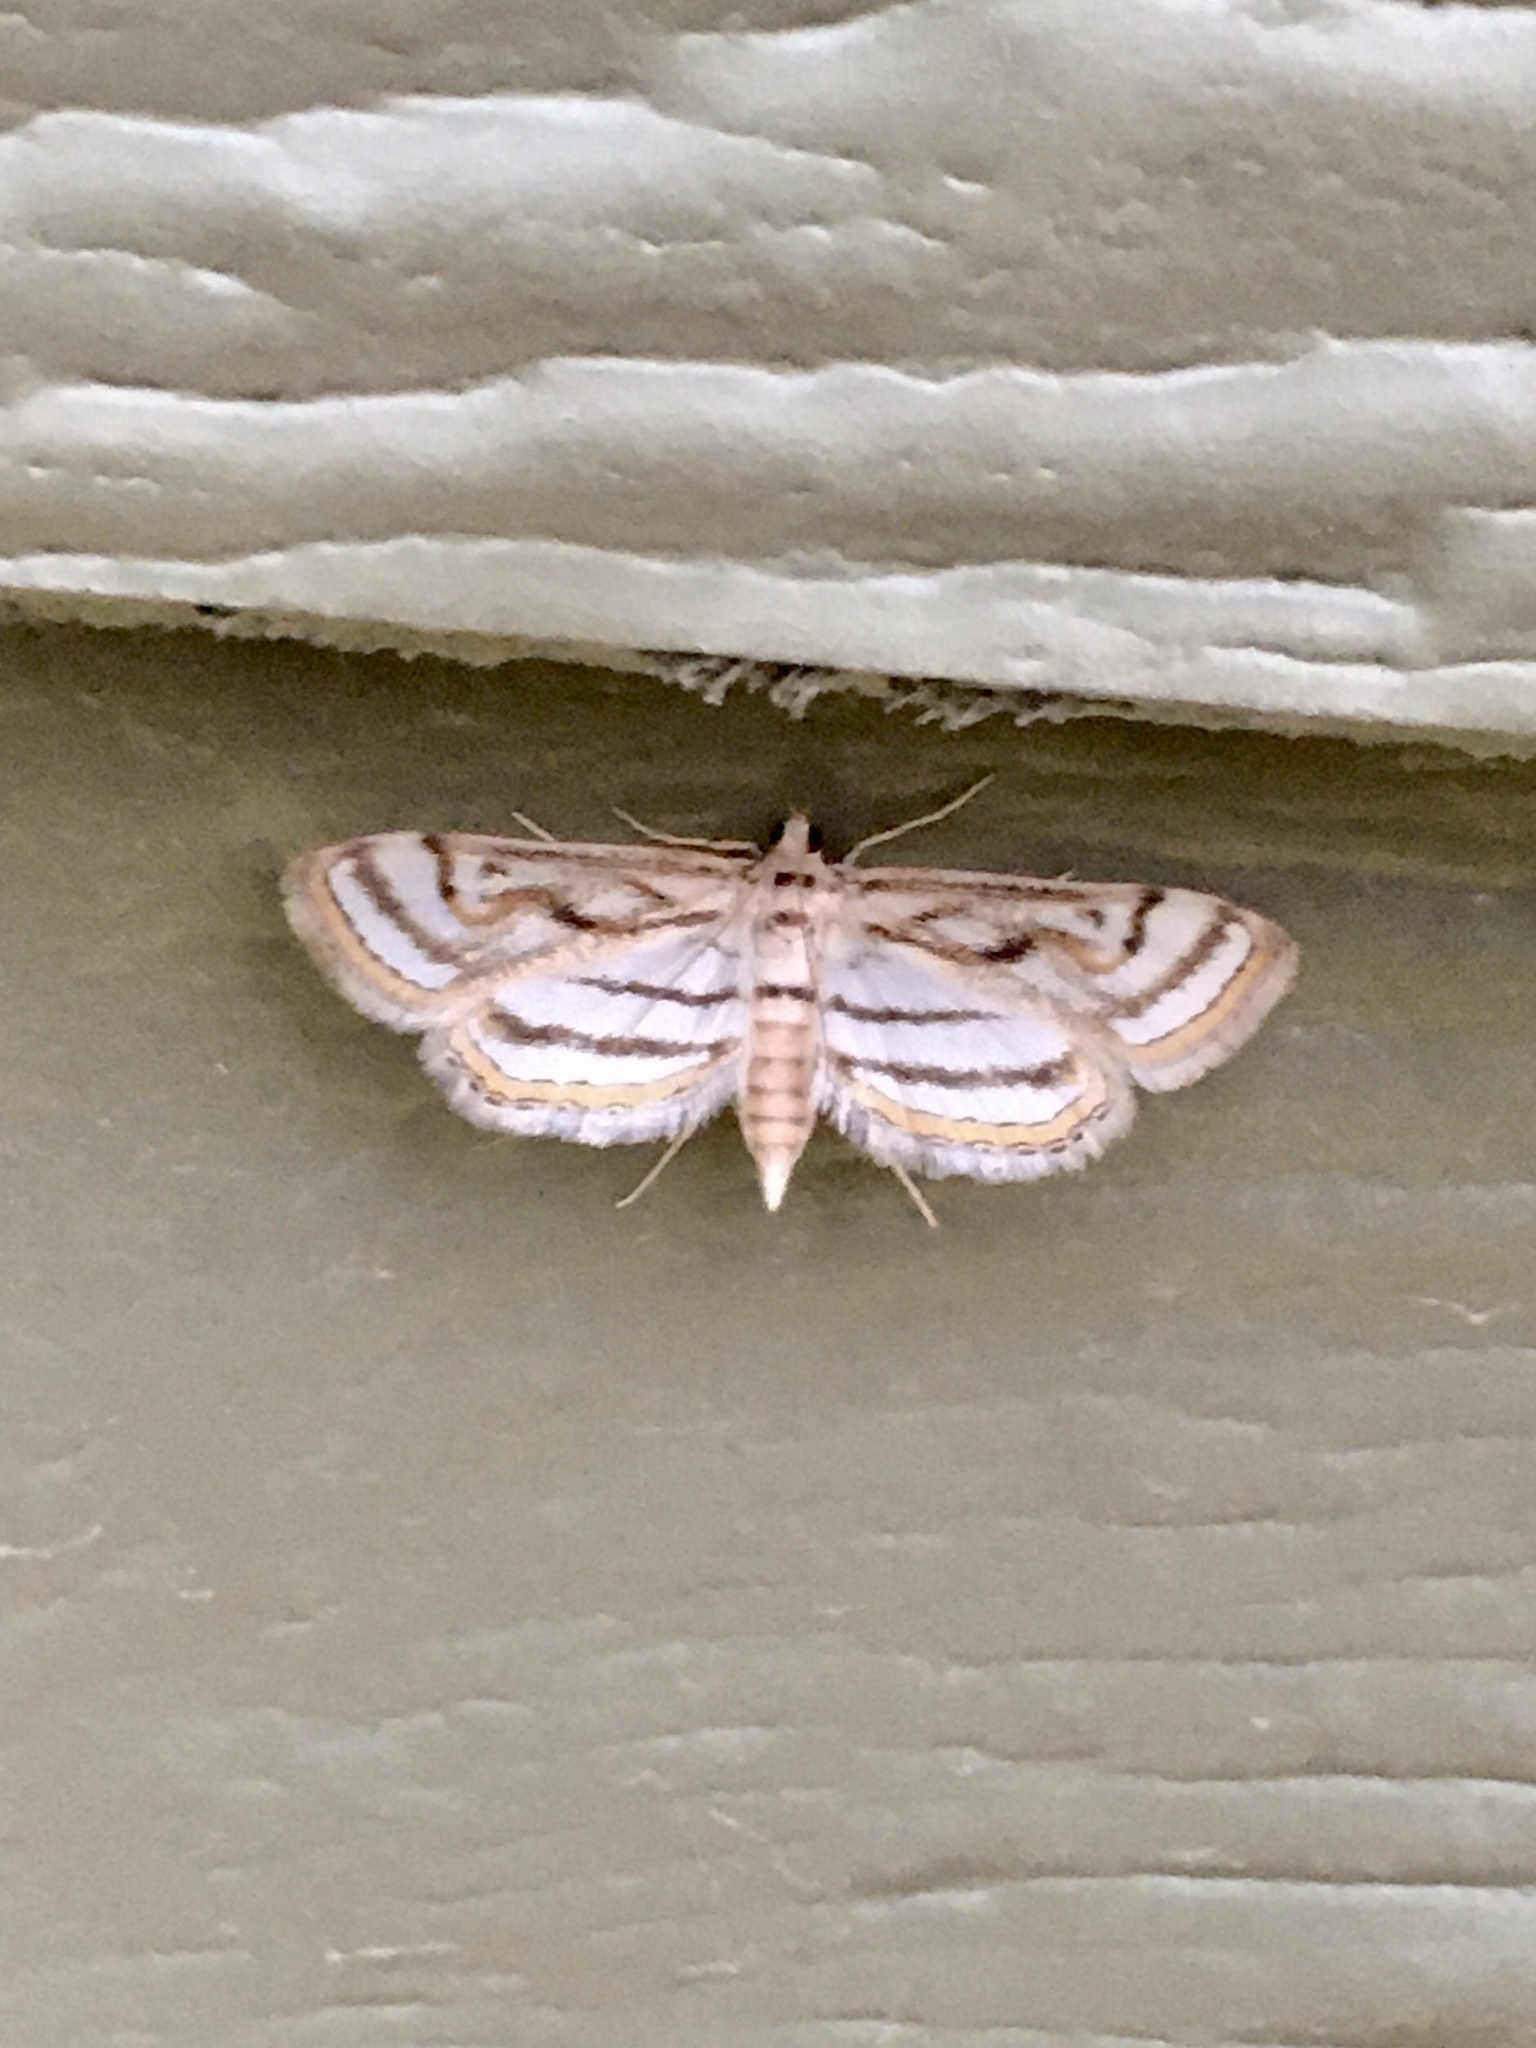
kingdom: Animalia
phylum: Arthropoda
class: Insecta
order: Lepidoptera
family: Crambidae
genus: Parapoynx
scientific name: Parapoynx badiusalis
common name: Chestnut-marked pondweed moth
